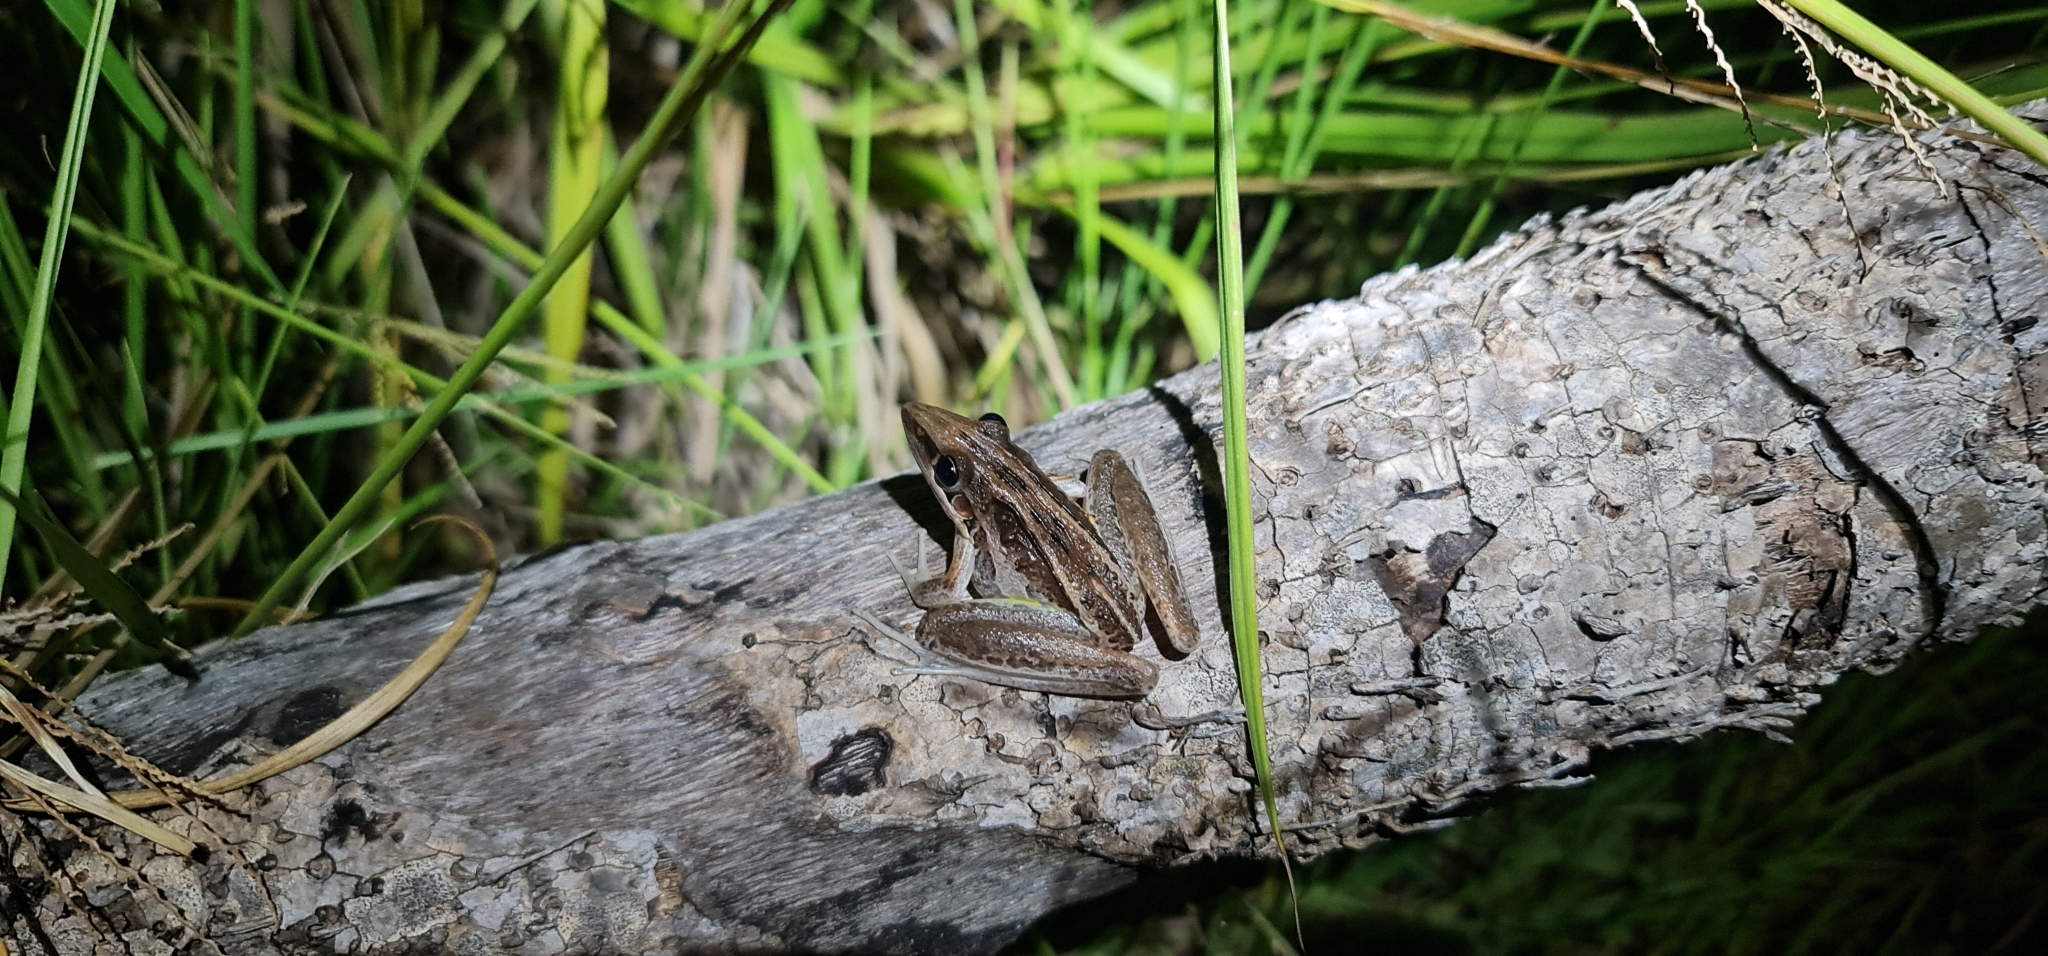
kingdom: Animalia
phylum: Chordata
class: Amphibia
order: Anura
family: Pelodryadidae
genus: Litoria
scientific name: Litoria nasuta
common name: Rocket frog
